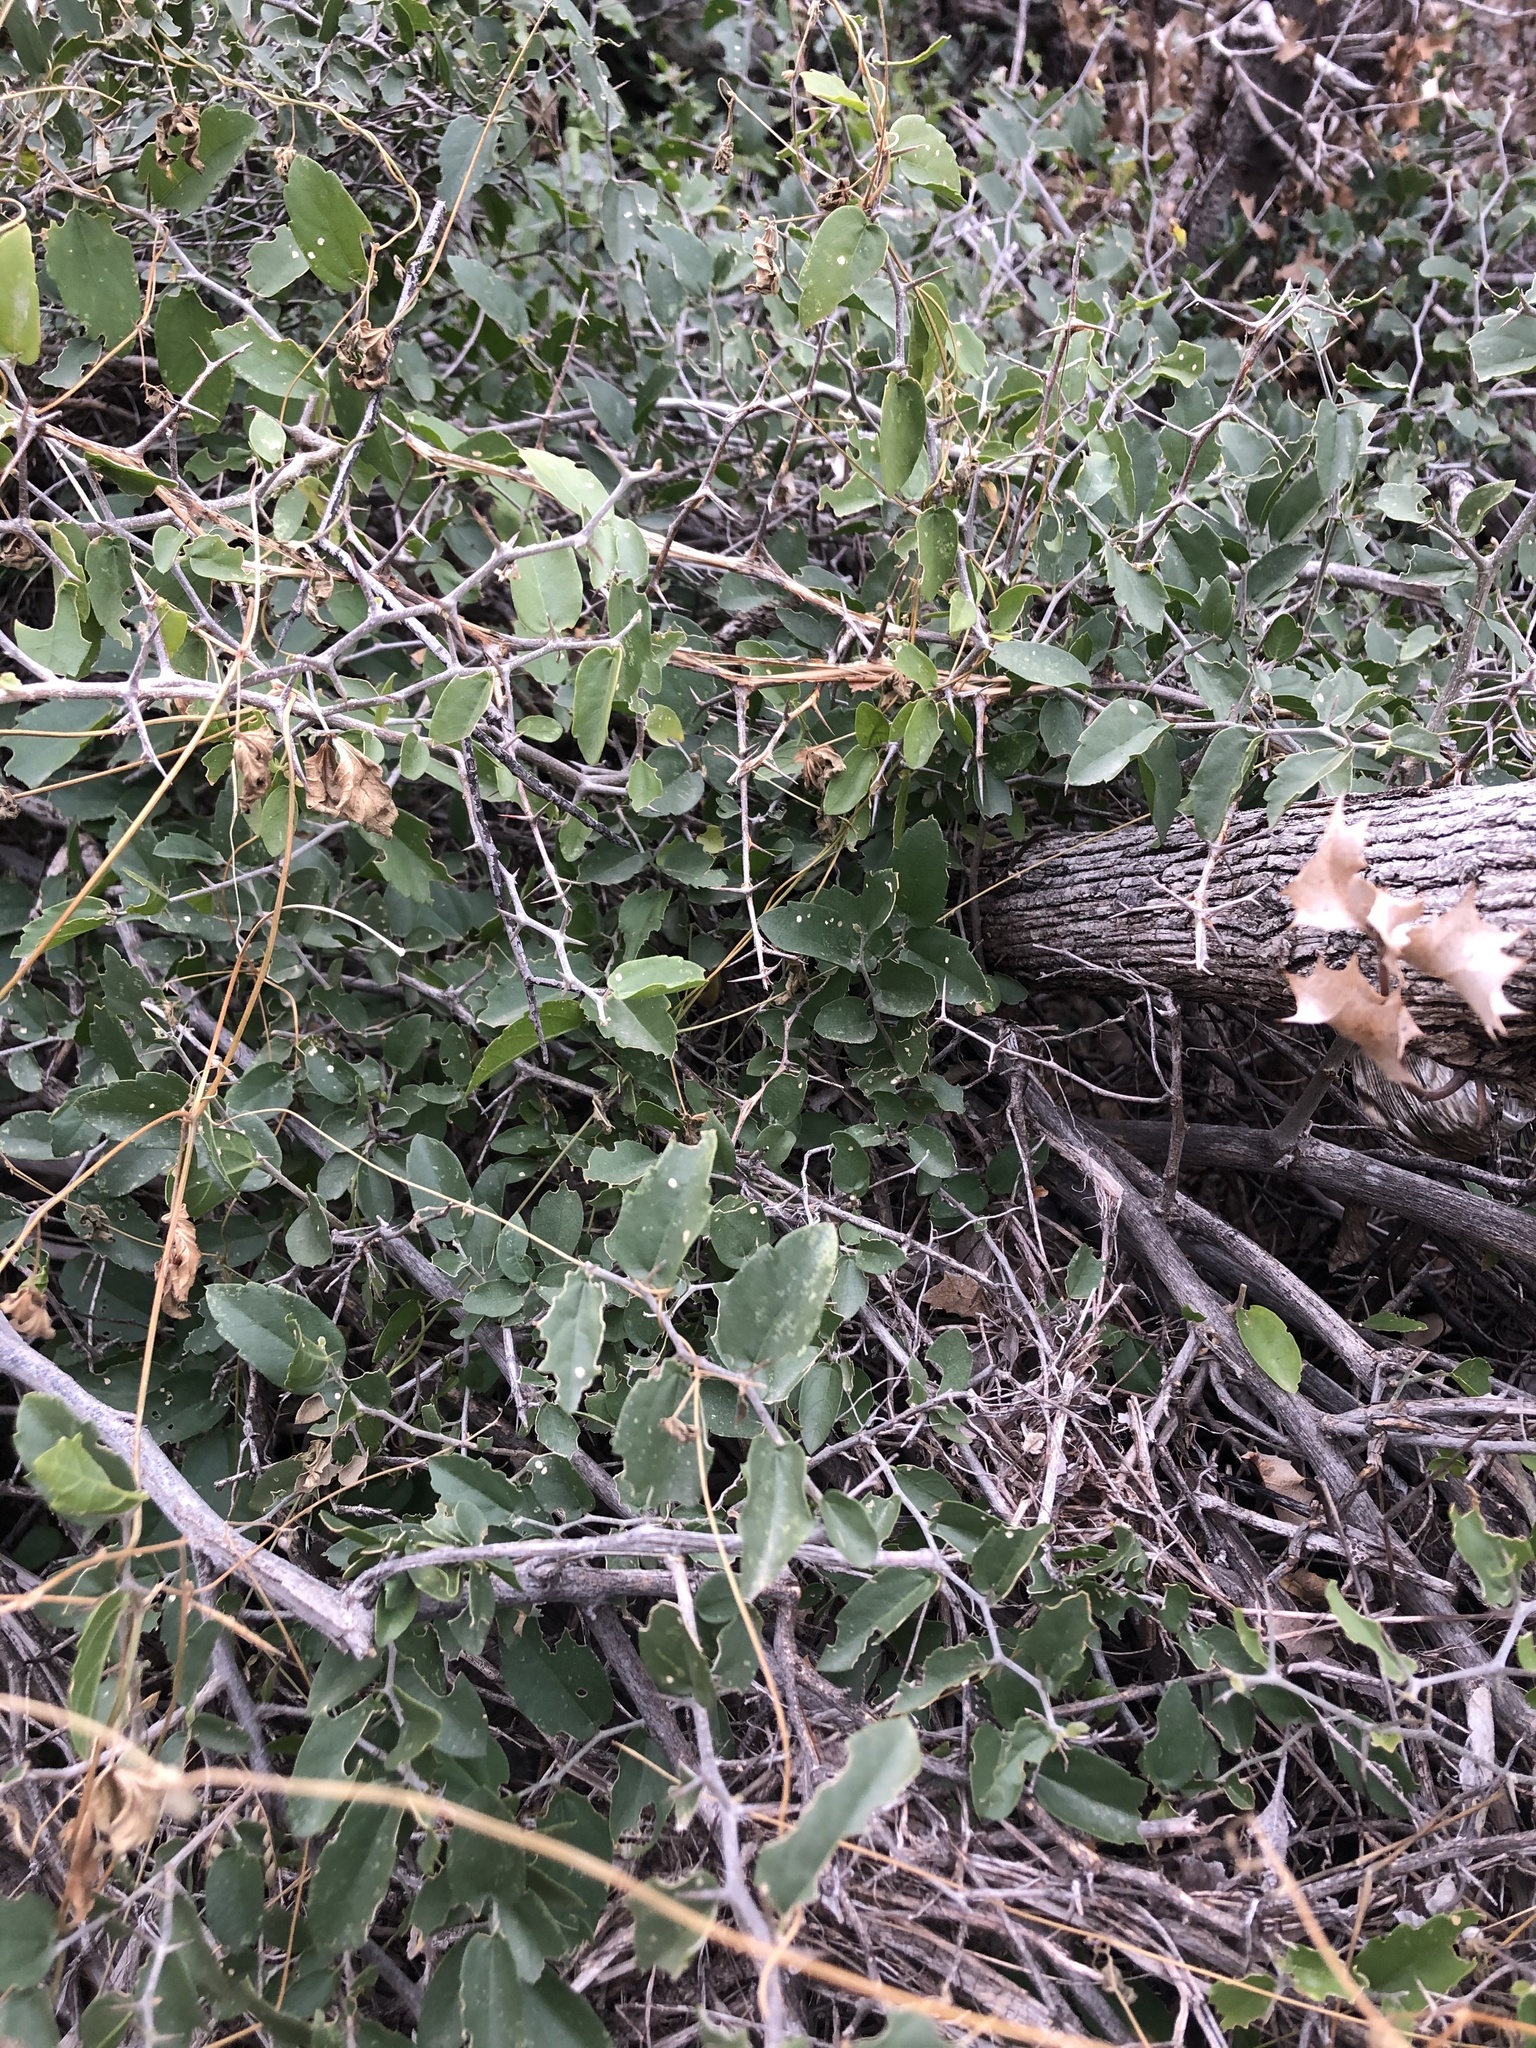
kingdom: Plantae
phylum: Tracheophyta
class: Magnoliopsida
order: Rosales
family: Cannabaceae
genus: Celtis
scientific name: Celtis pallida
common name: Desert hackberry
